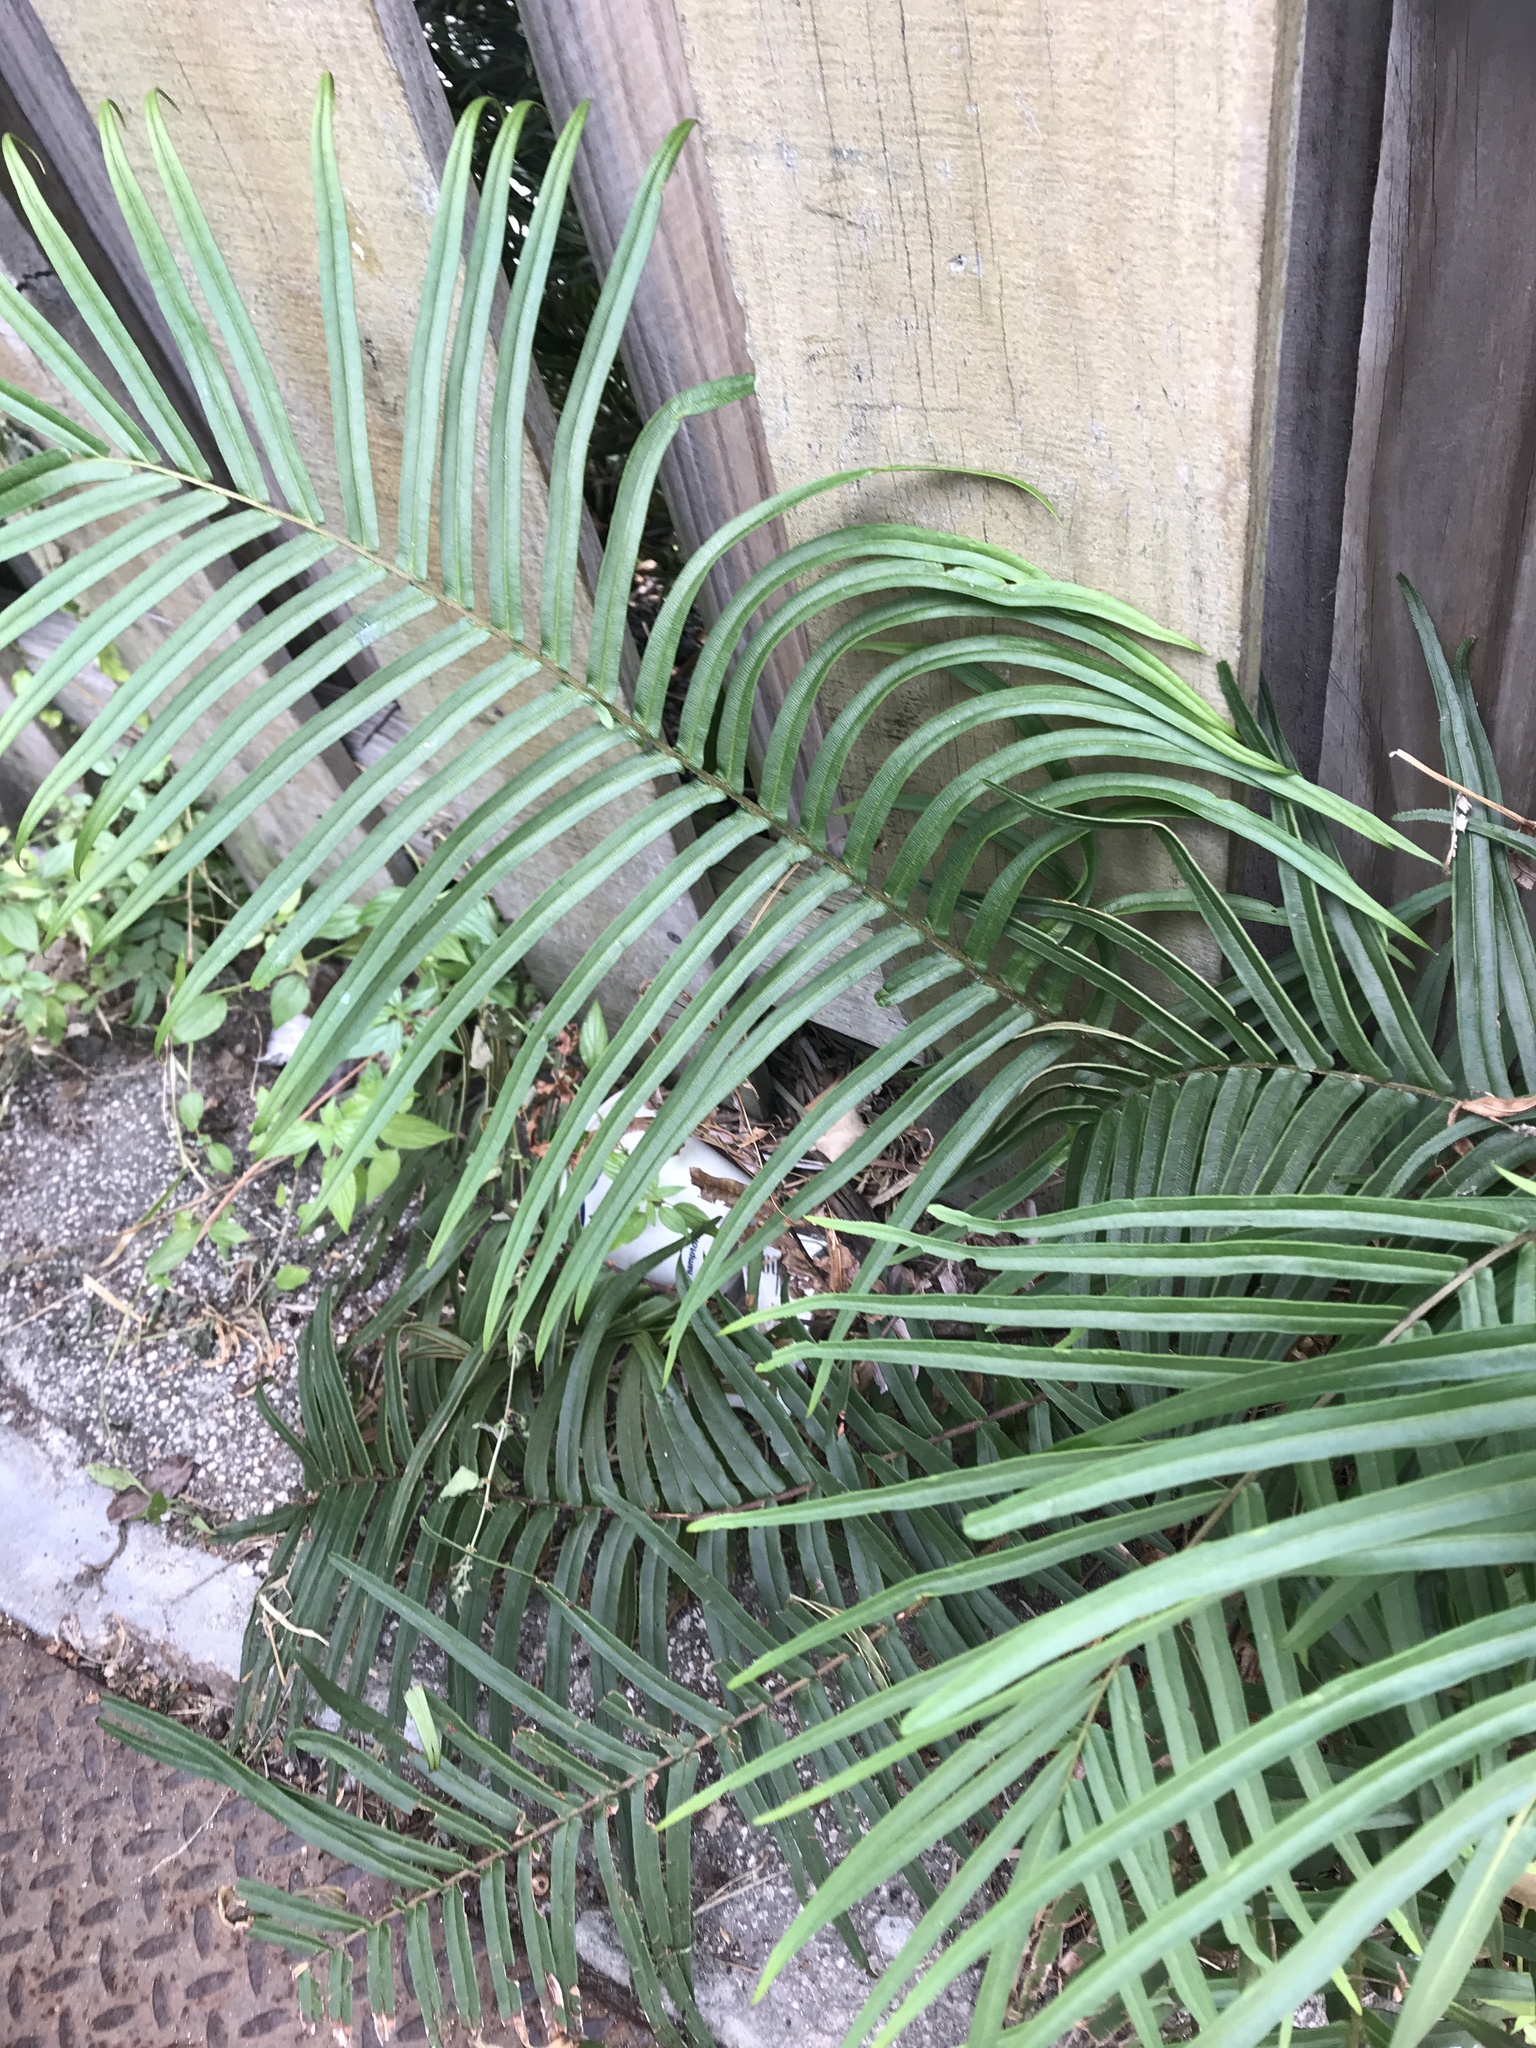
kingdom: Plantae
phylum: Tracheophyta
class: Polypodiopsida
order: Polypodiales
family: Pteridaceae
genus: Pteris
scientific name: Pteris vittata
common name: Ladder brake
